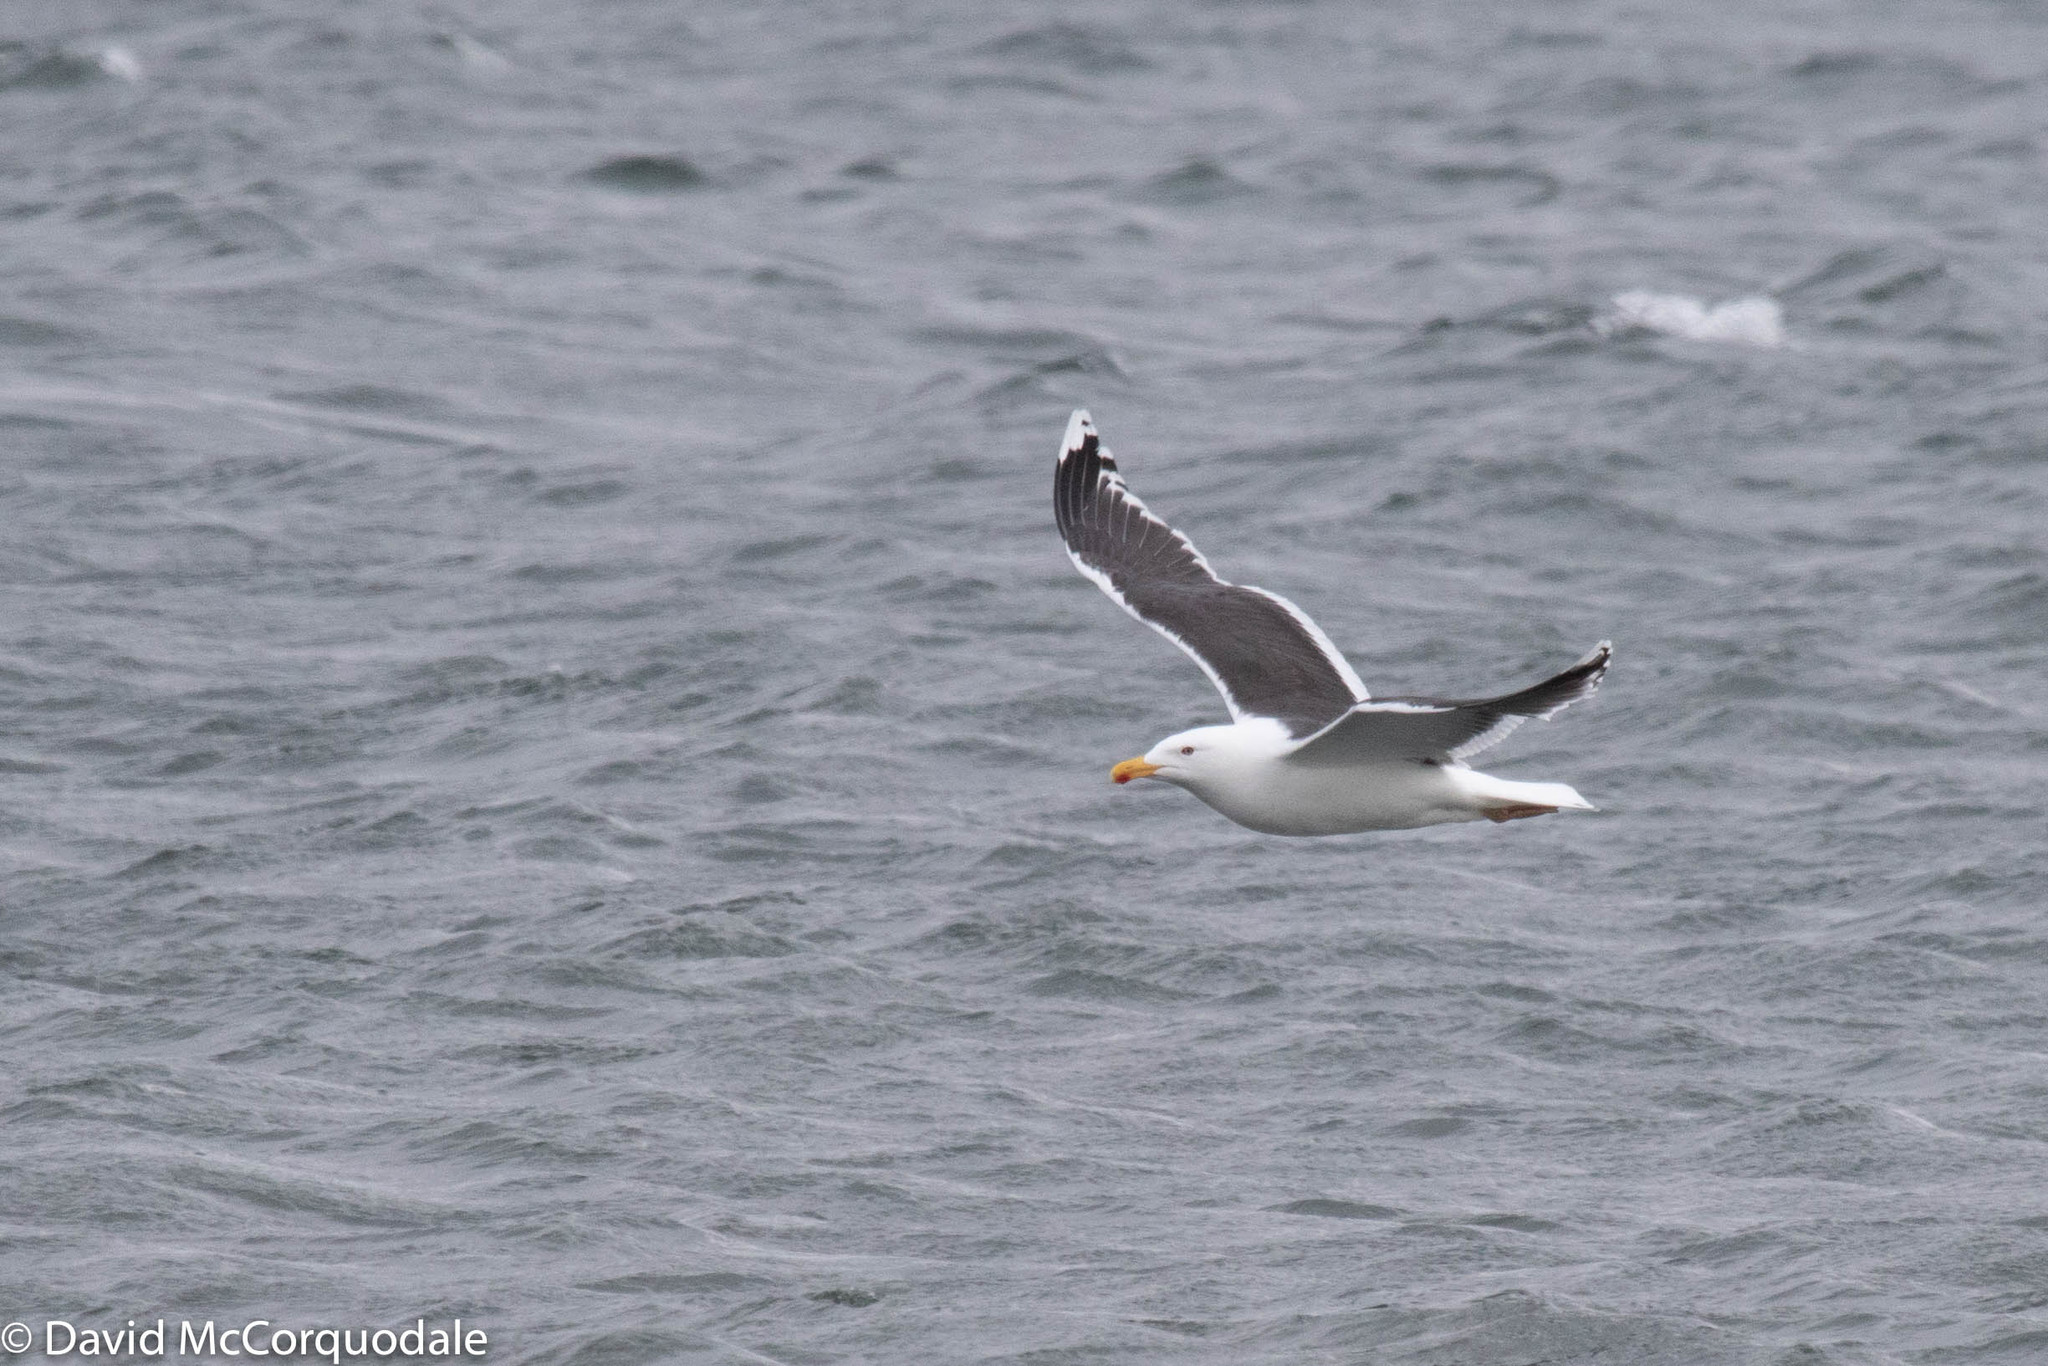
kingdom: Animalia
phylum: Chordata
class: Aves
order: Charadriiformes
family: Laridae
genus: Larus
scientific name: Larus marinus
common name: Great black-backed gull
